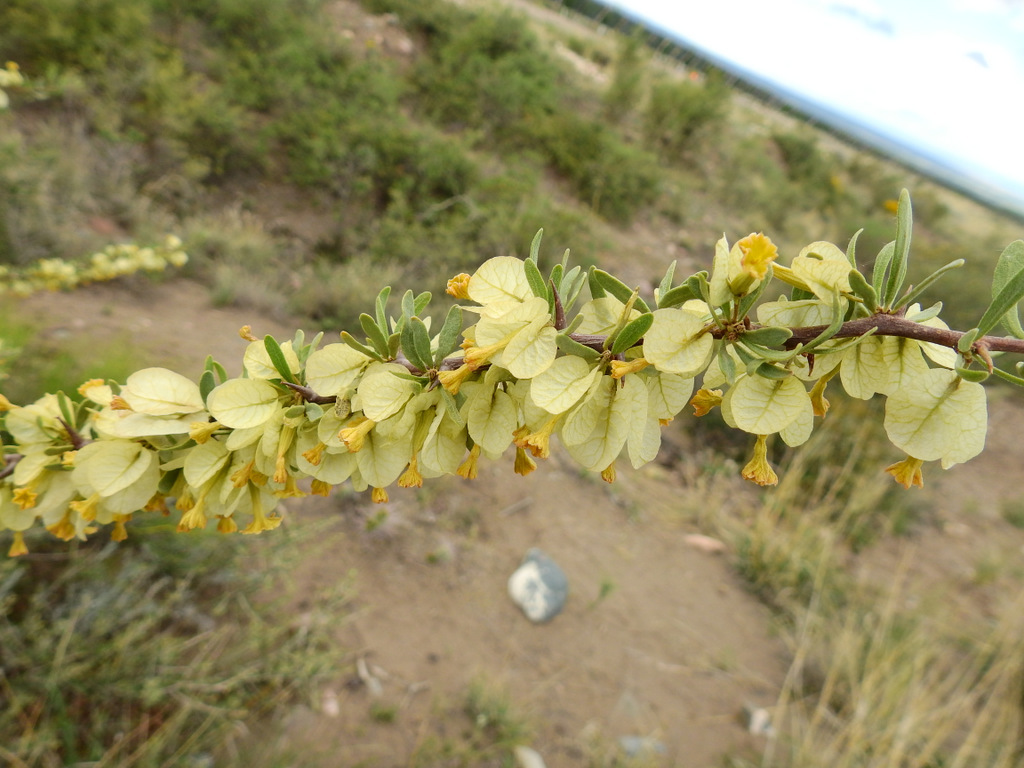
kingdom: Plantae
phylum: Tracheophyta
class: Magnoliopsida
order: Caryophyllales
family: Nyctaginaceae
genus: Bougainvillea
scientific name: Bougainvillea spinosa
